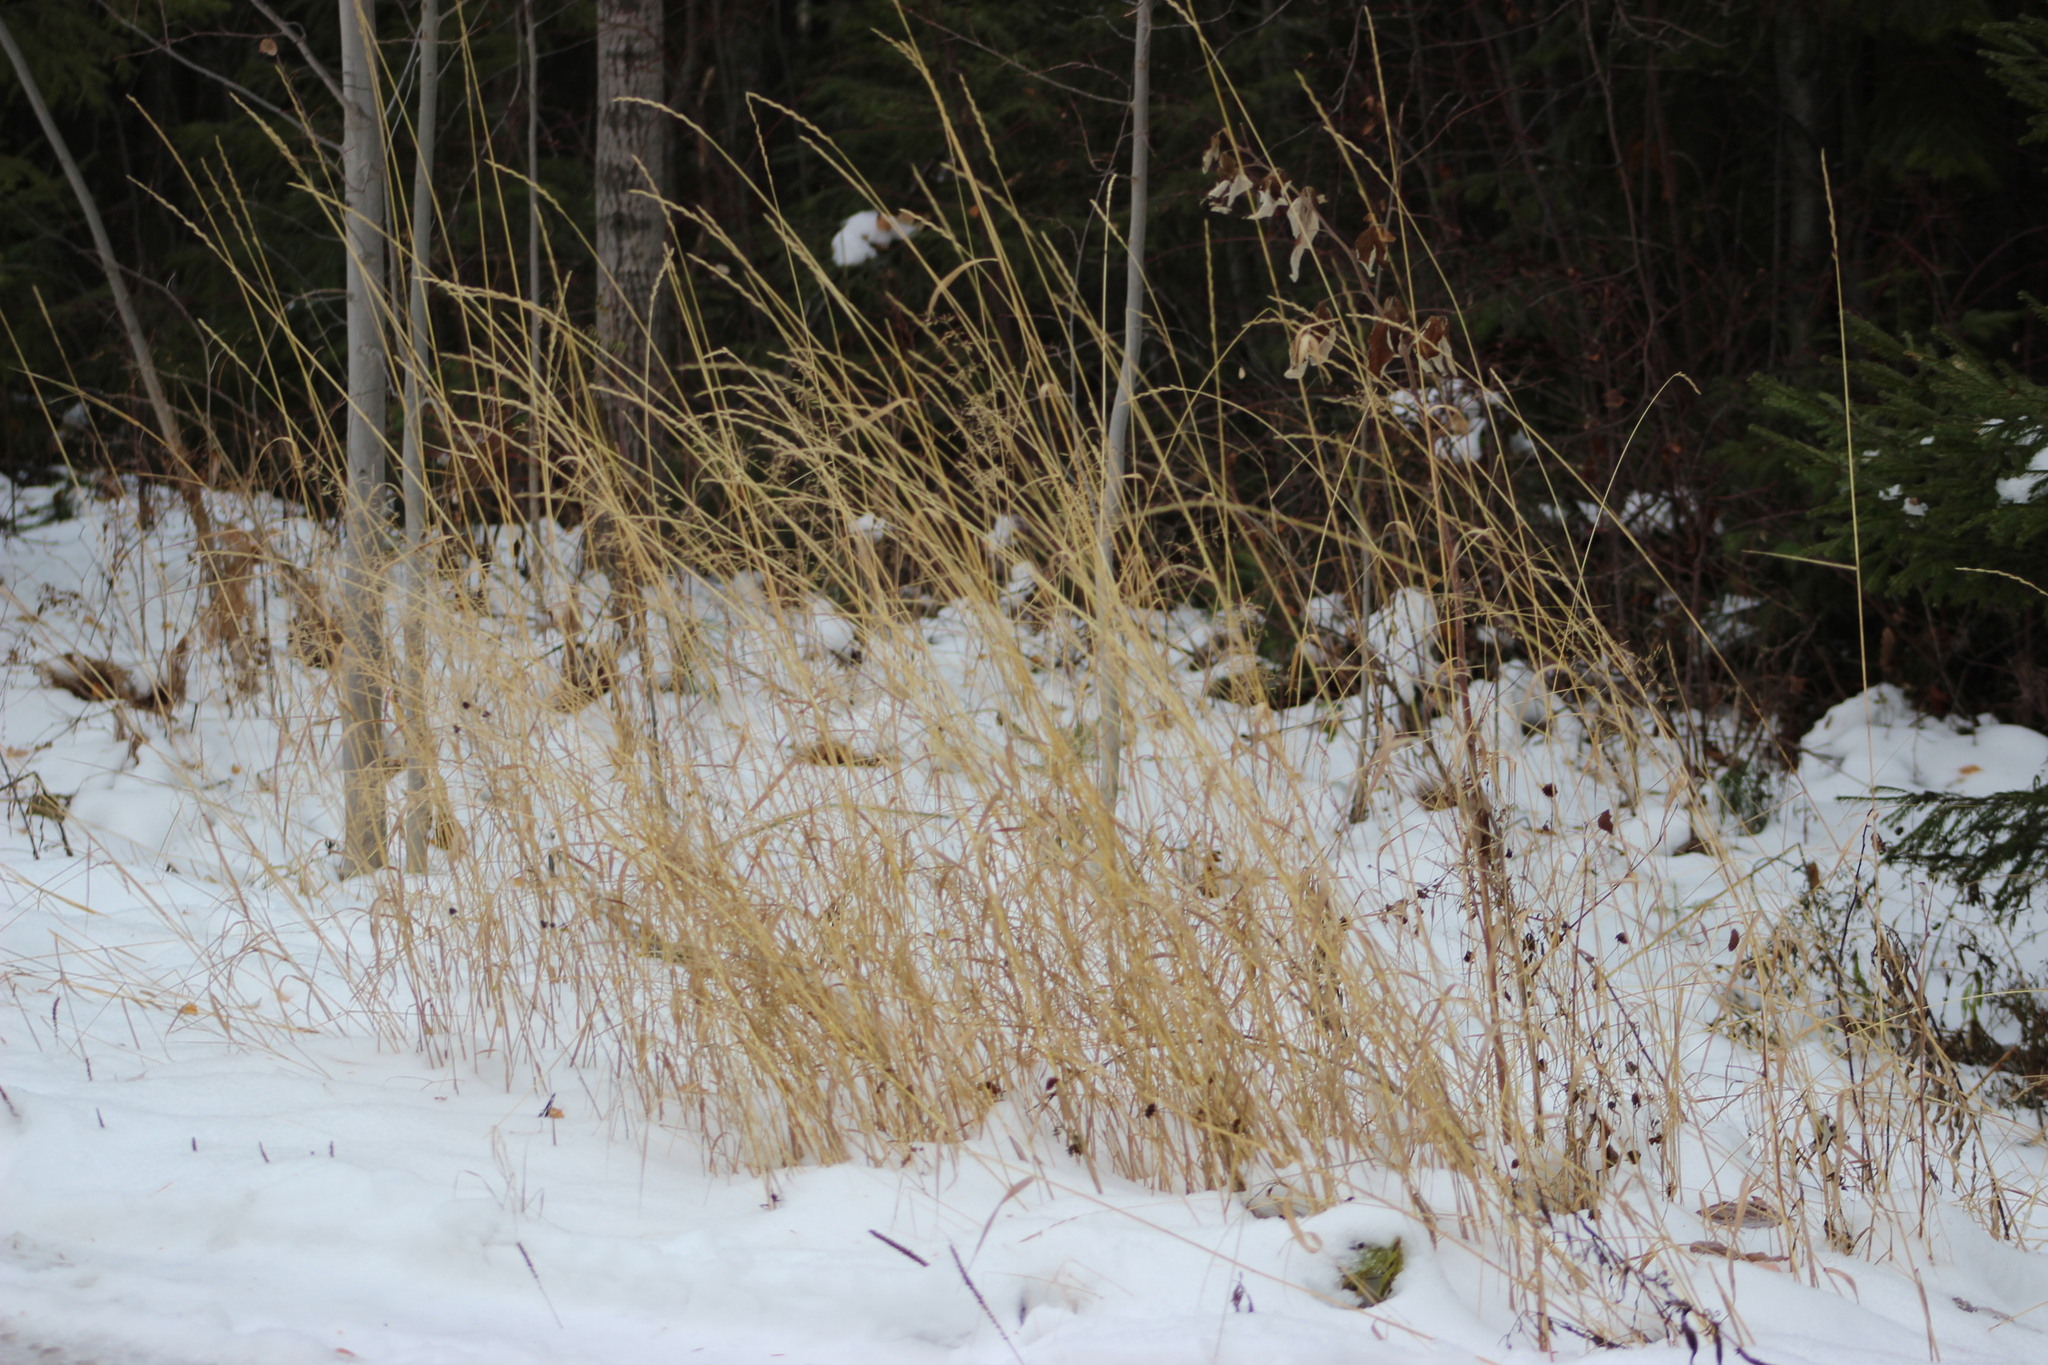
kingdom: Plantae
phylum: Tracheophyta
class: Liliopsida
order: Poales
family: Poaceae
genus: Elymus
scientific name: Elymus repens
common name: Quackgrass
